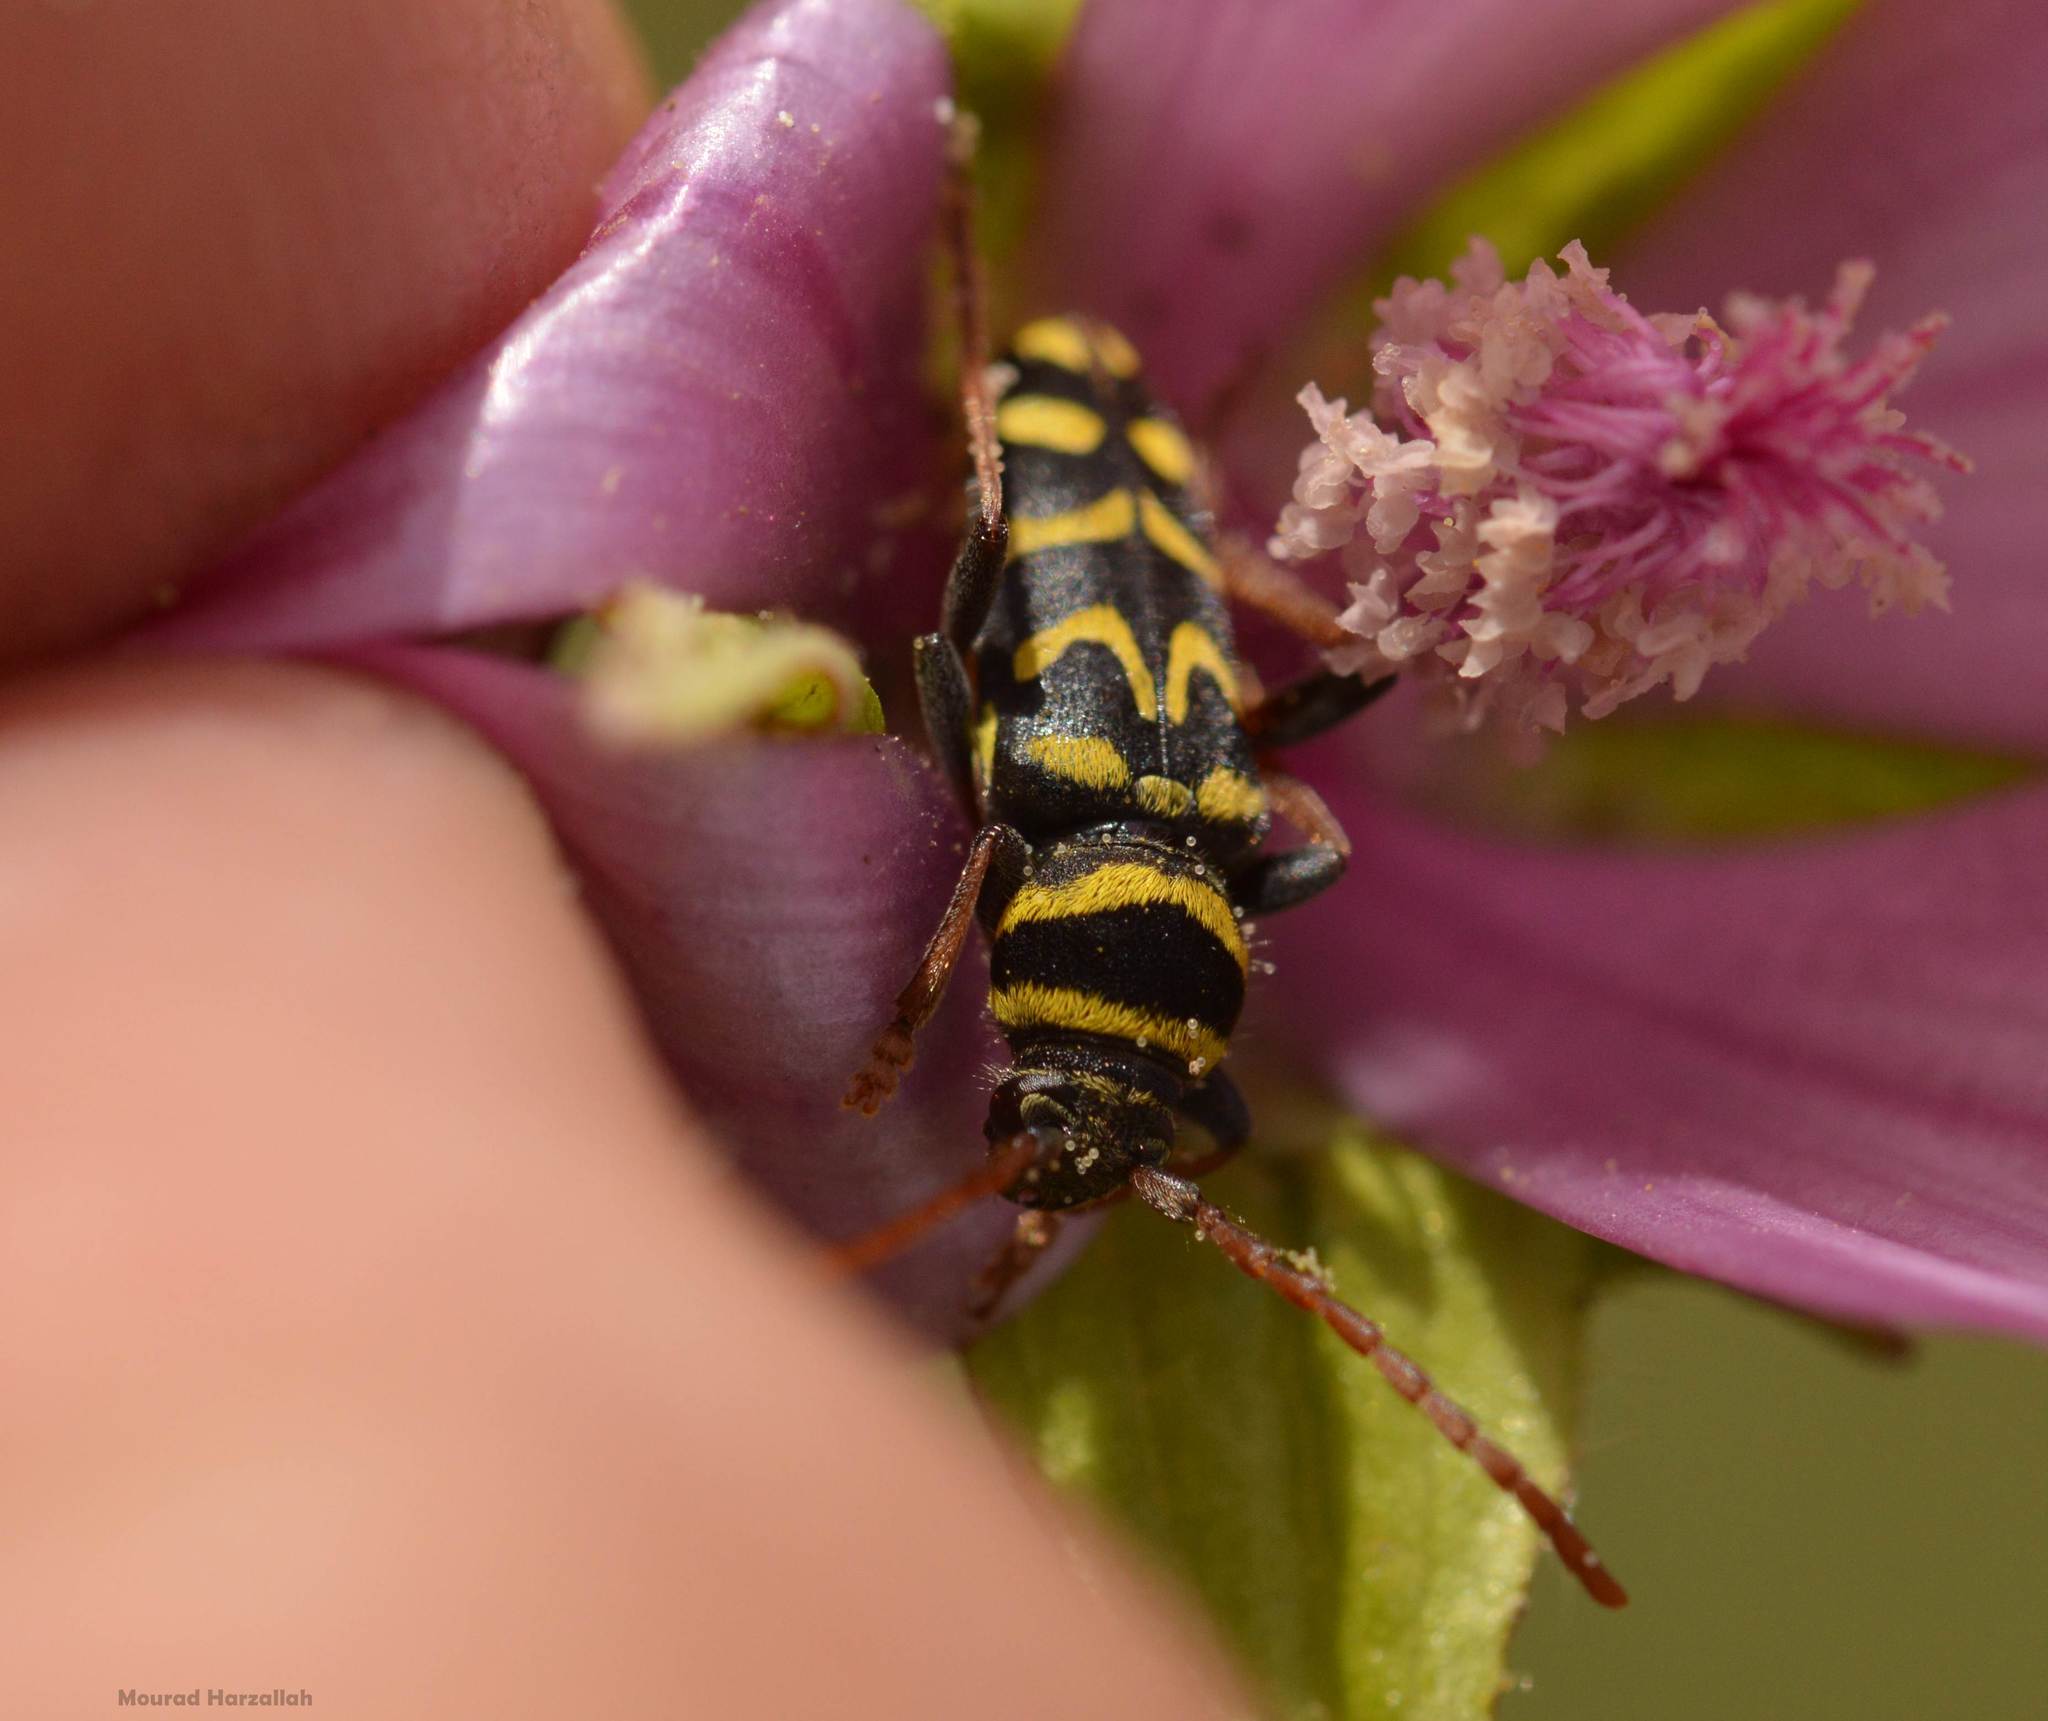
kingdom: Animalia
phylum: Arthropoda
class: Insecta
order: Coleoptera
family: Cerambycidae
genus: Neoplagionotus
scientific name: Neoplagionotus scalaris
